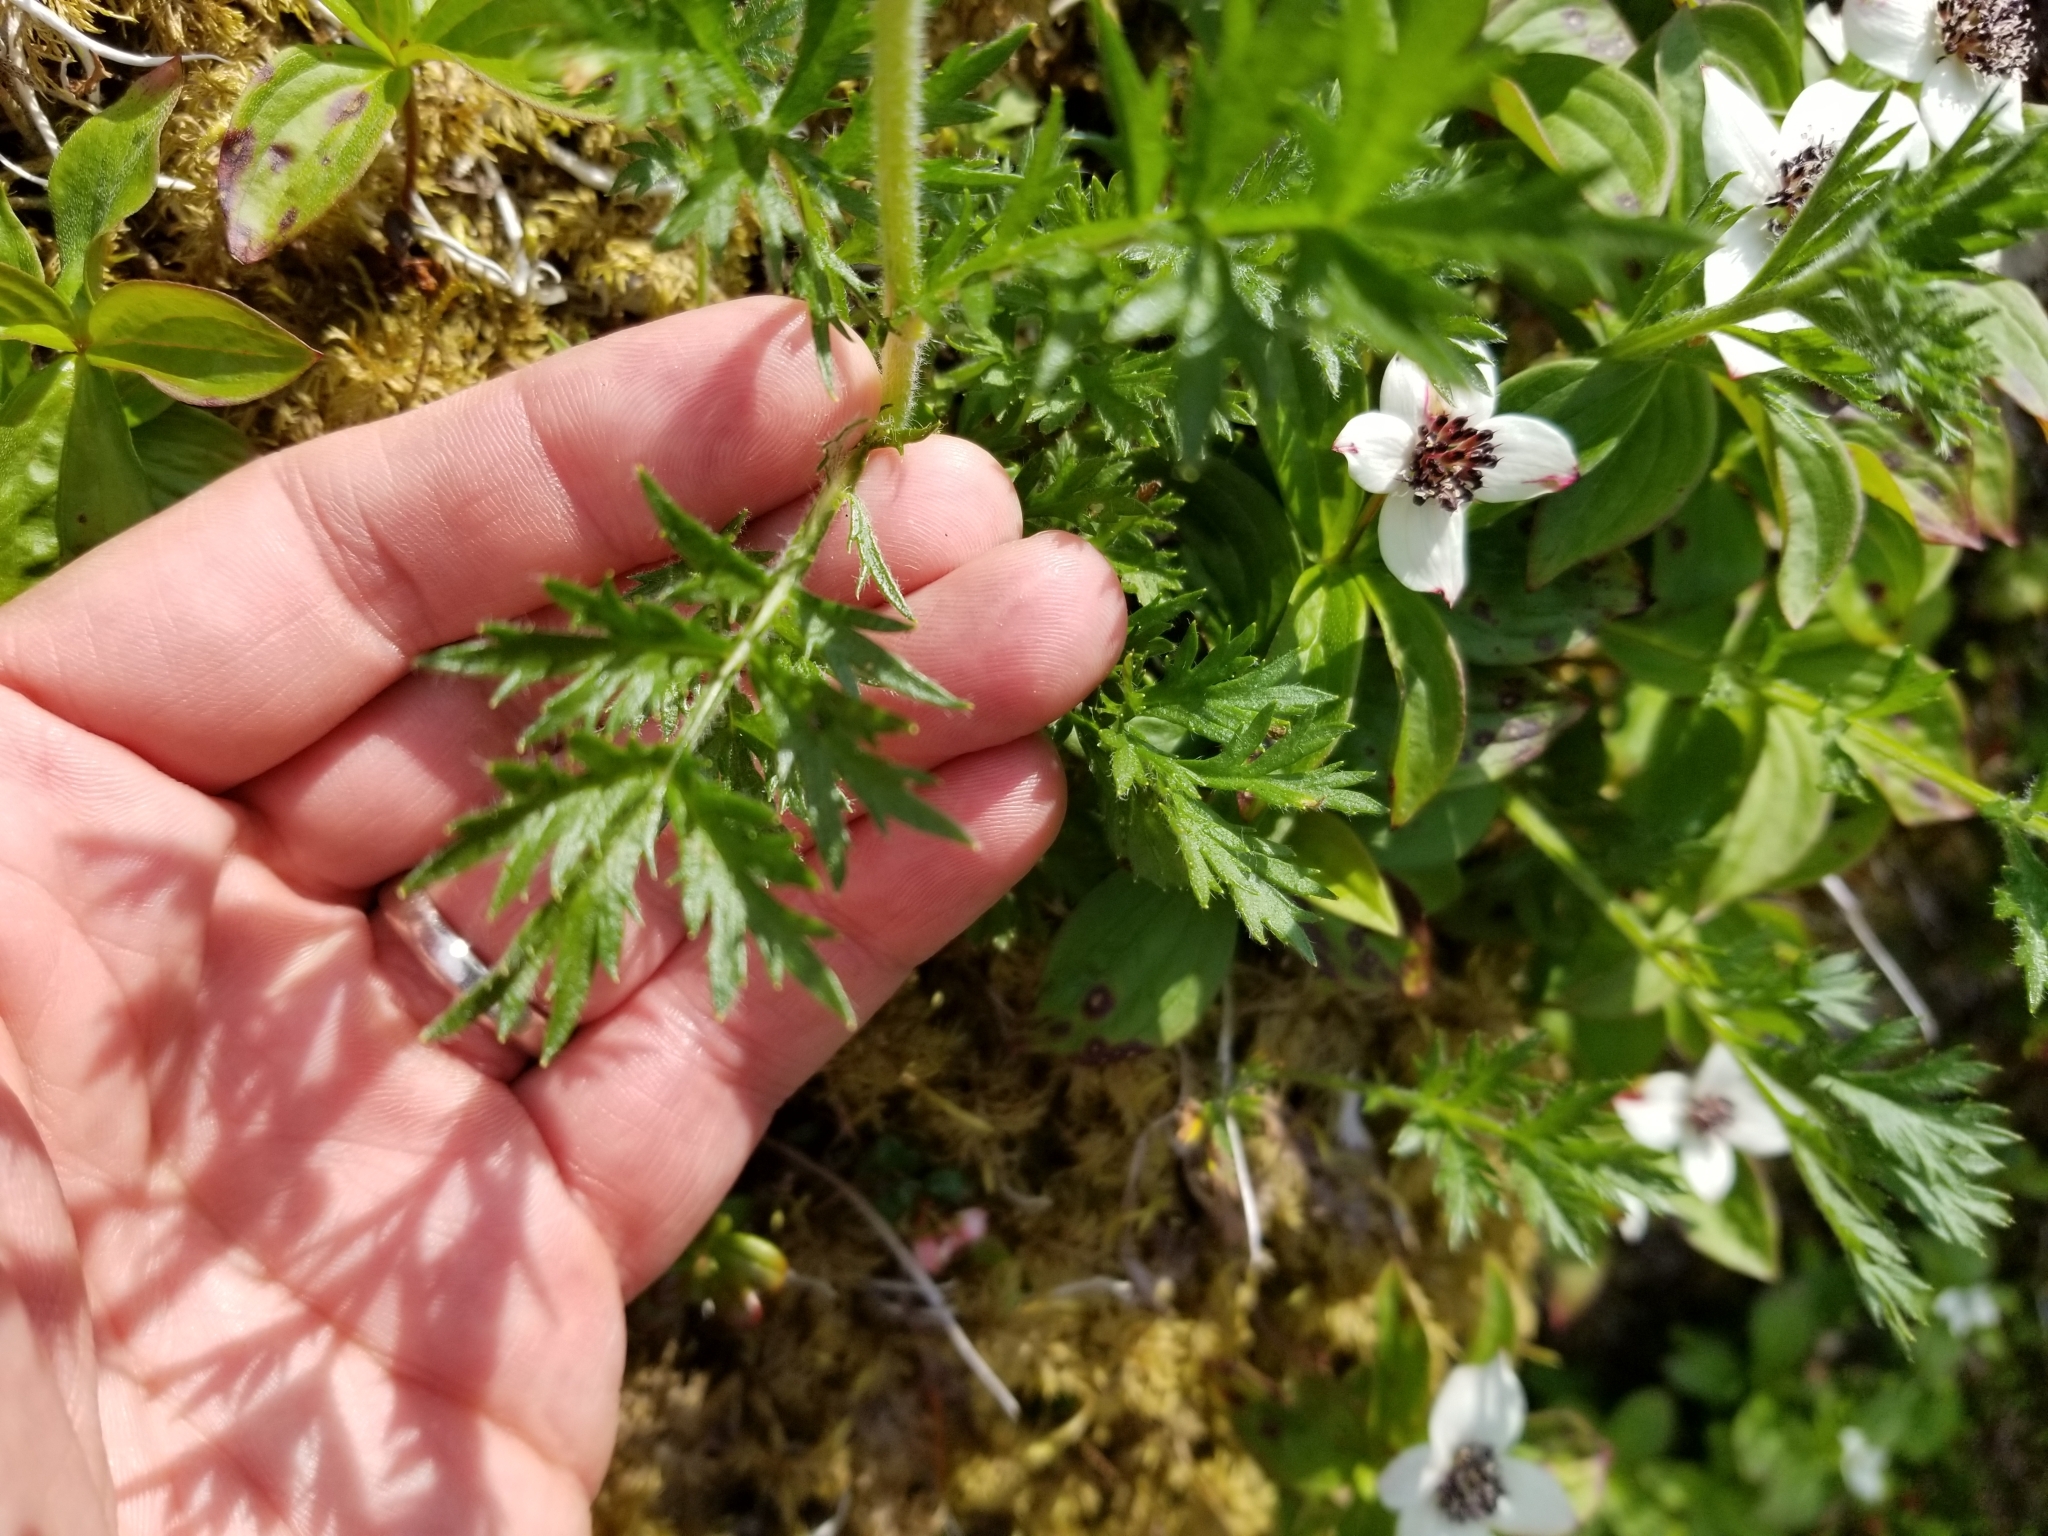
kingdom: Plantae
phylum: Tracheophyta
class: Magnoliopsida
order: Asterales
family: Asteraceae
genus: Artemisia
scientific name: Artemisia norvegica
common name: Norwegian mugwort
